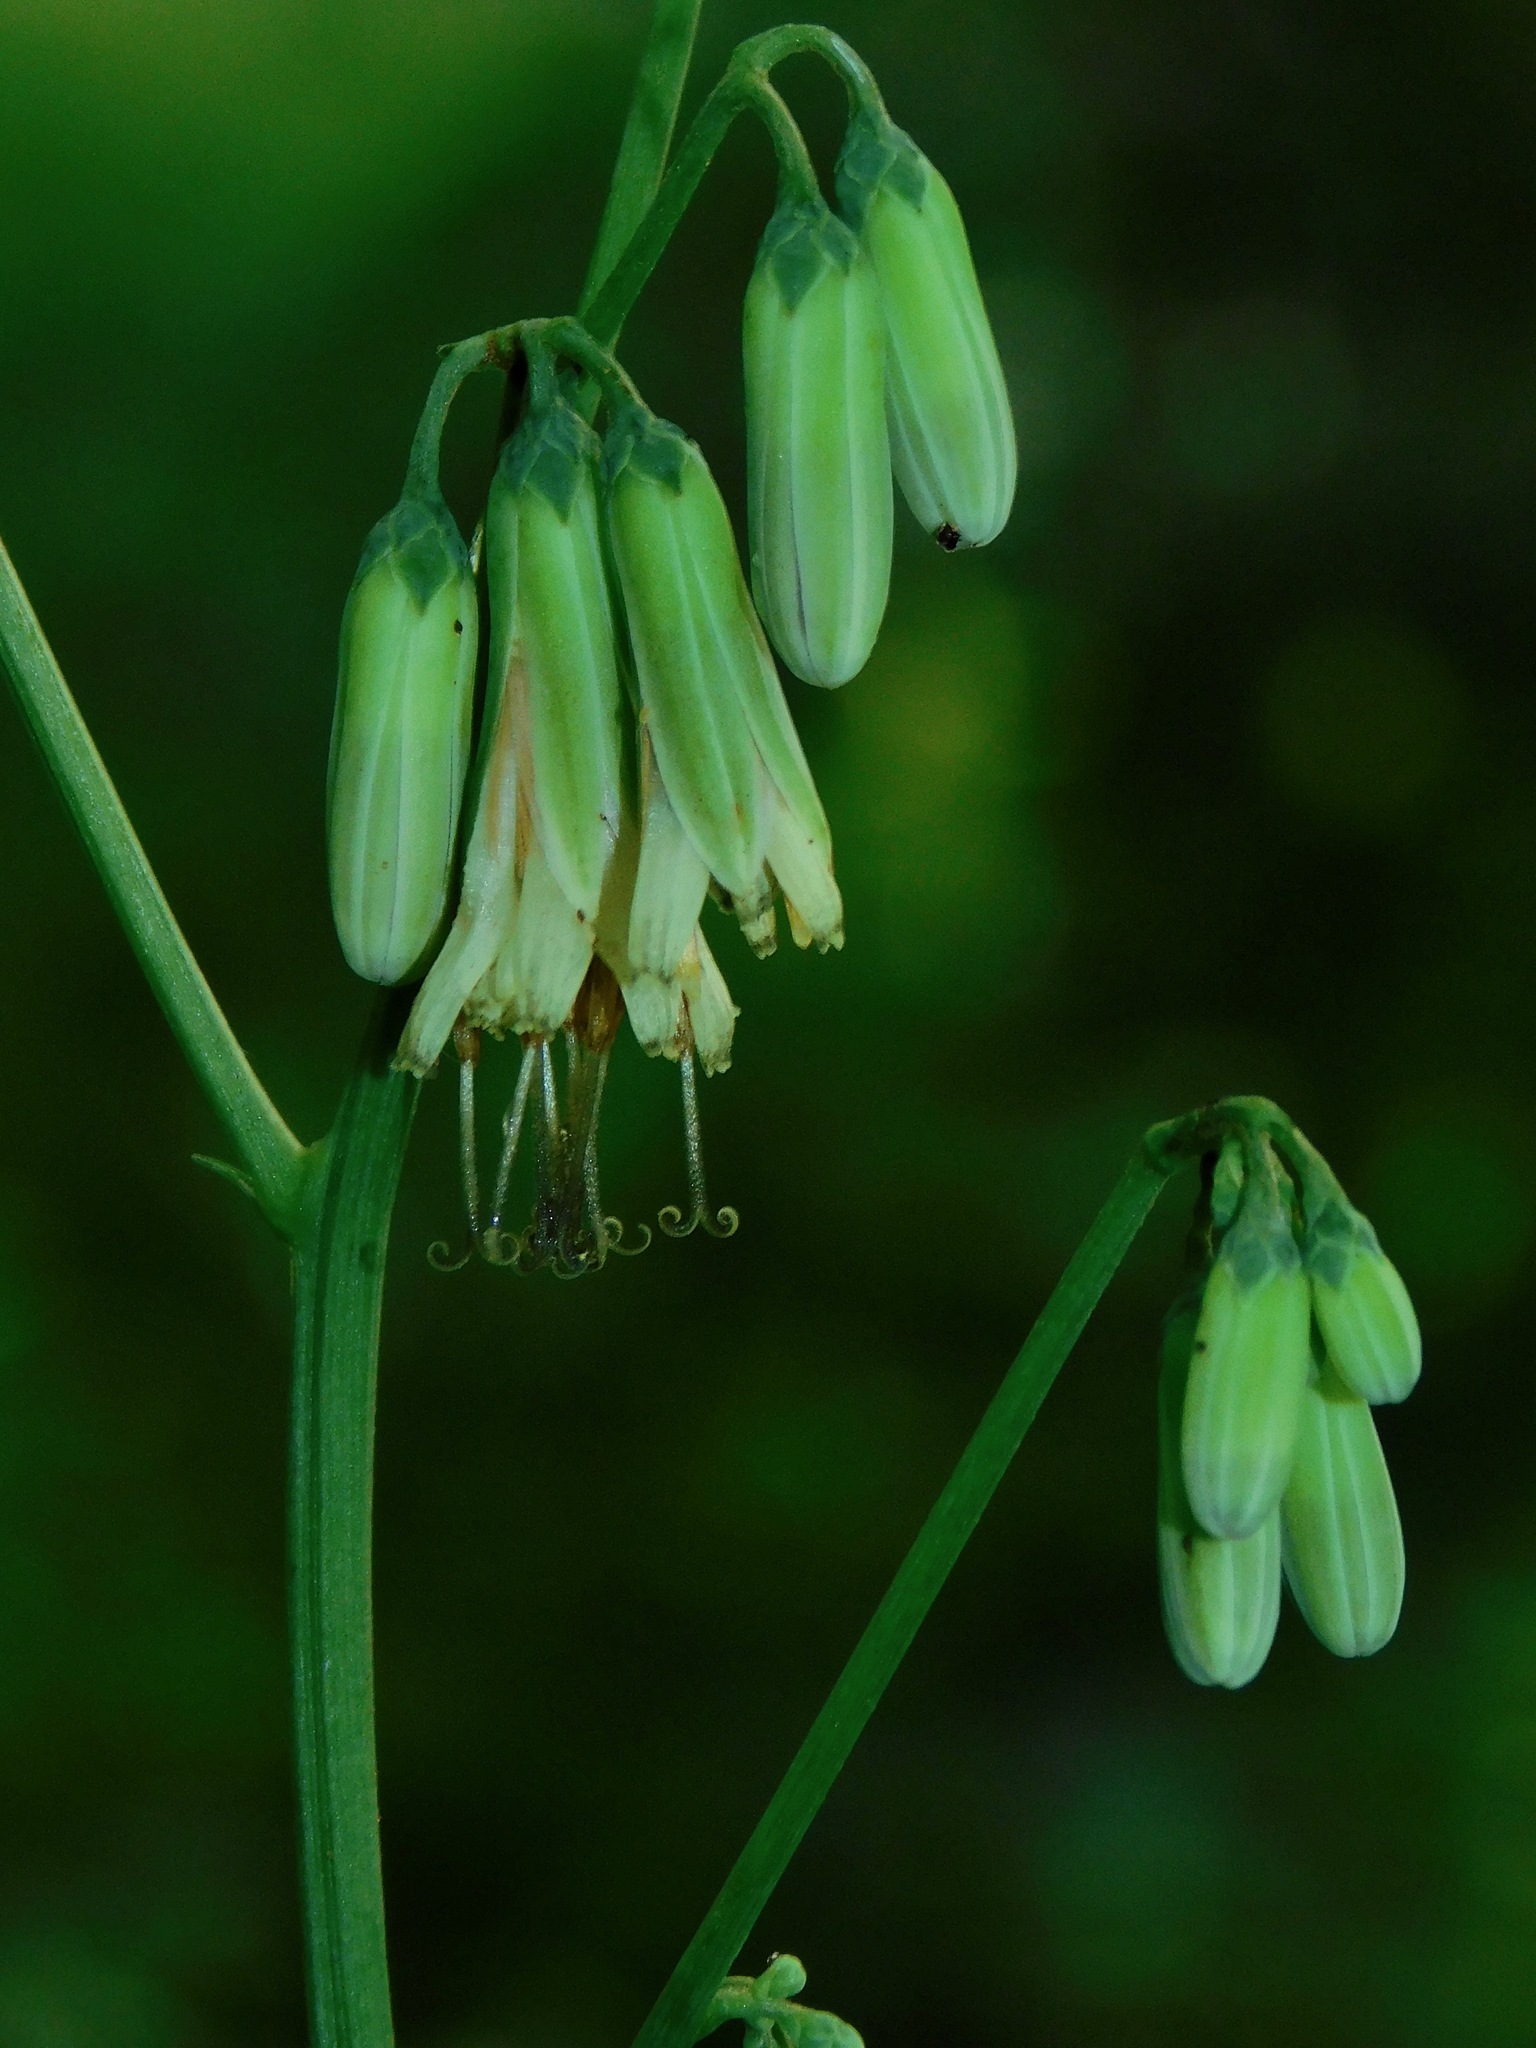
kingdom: Plantae
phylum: Tracheophyta
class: Magnoliopsida
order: Asterales
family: Asteraceae
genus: Nabalus
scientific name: Nabalus trifoliolatus
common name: Gall-of-the-earth
